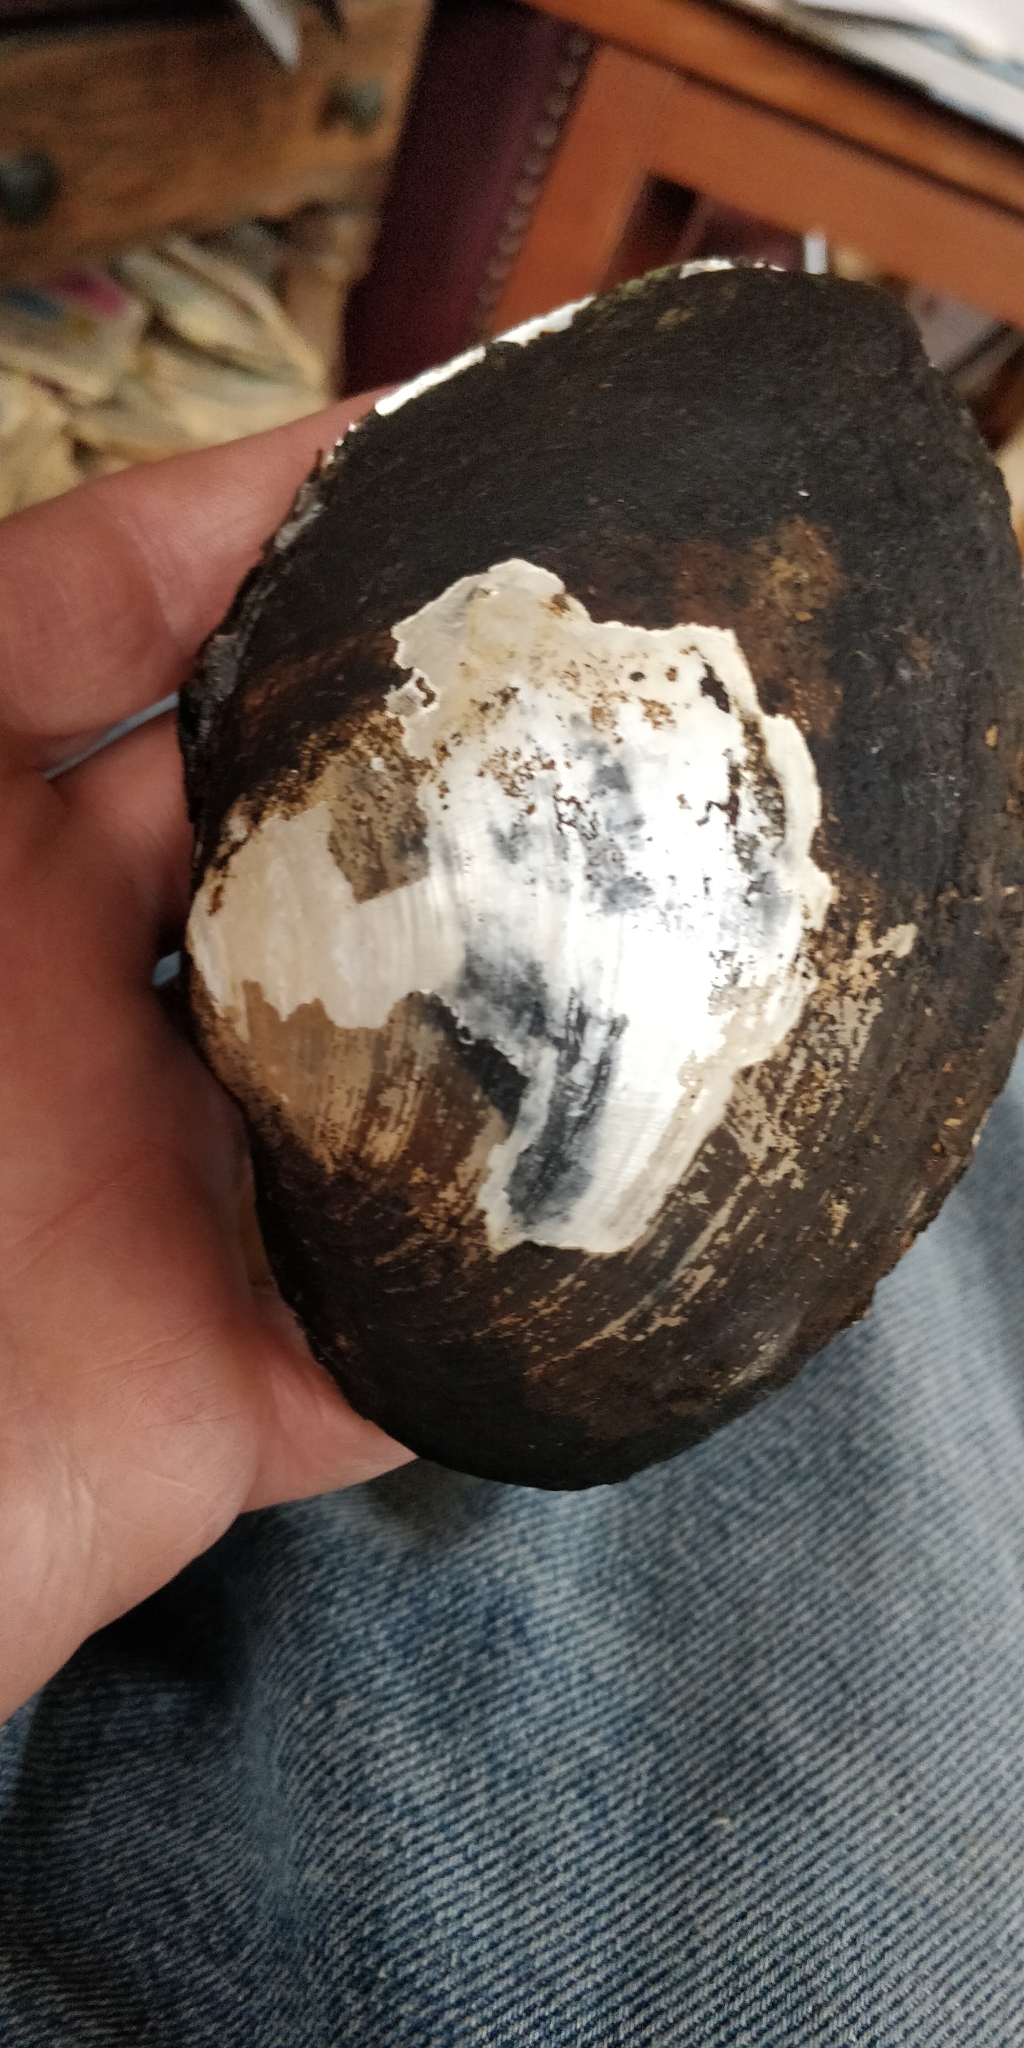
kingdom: Animalia
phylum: Mollusca
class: Bivalvia
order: Unionida
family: Unionidae
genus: Lasmigona
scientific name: Lasmigona complanata
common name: White heelsplitter
